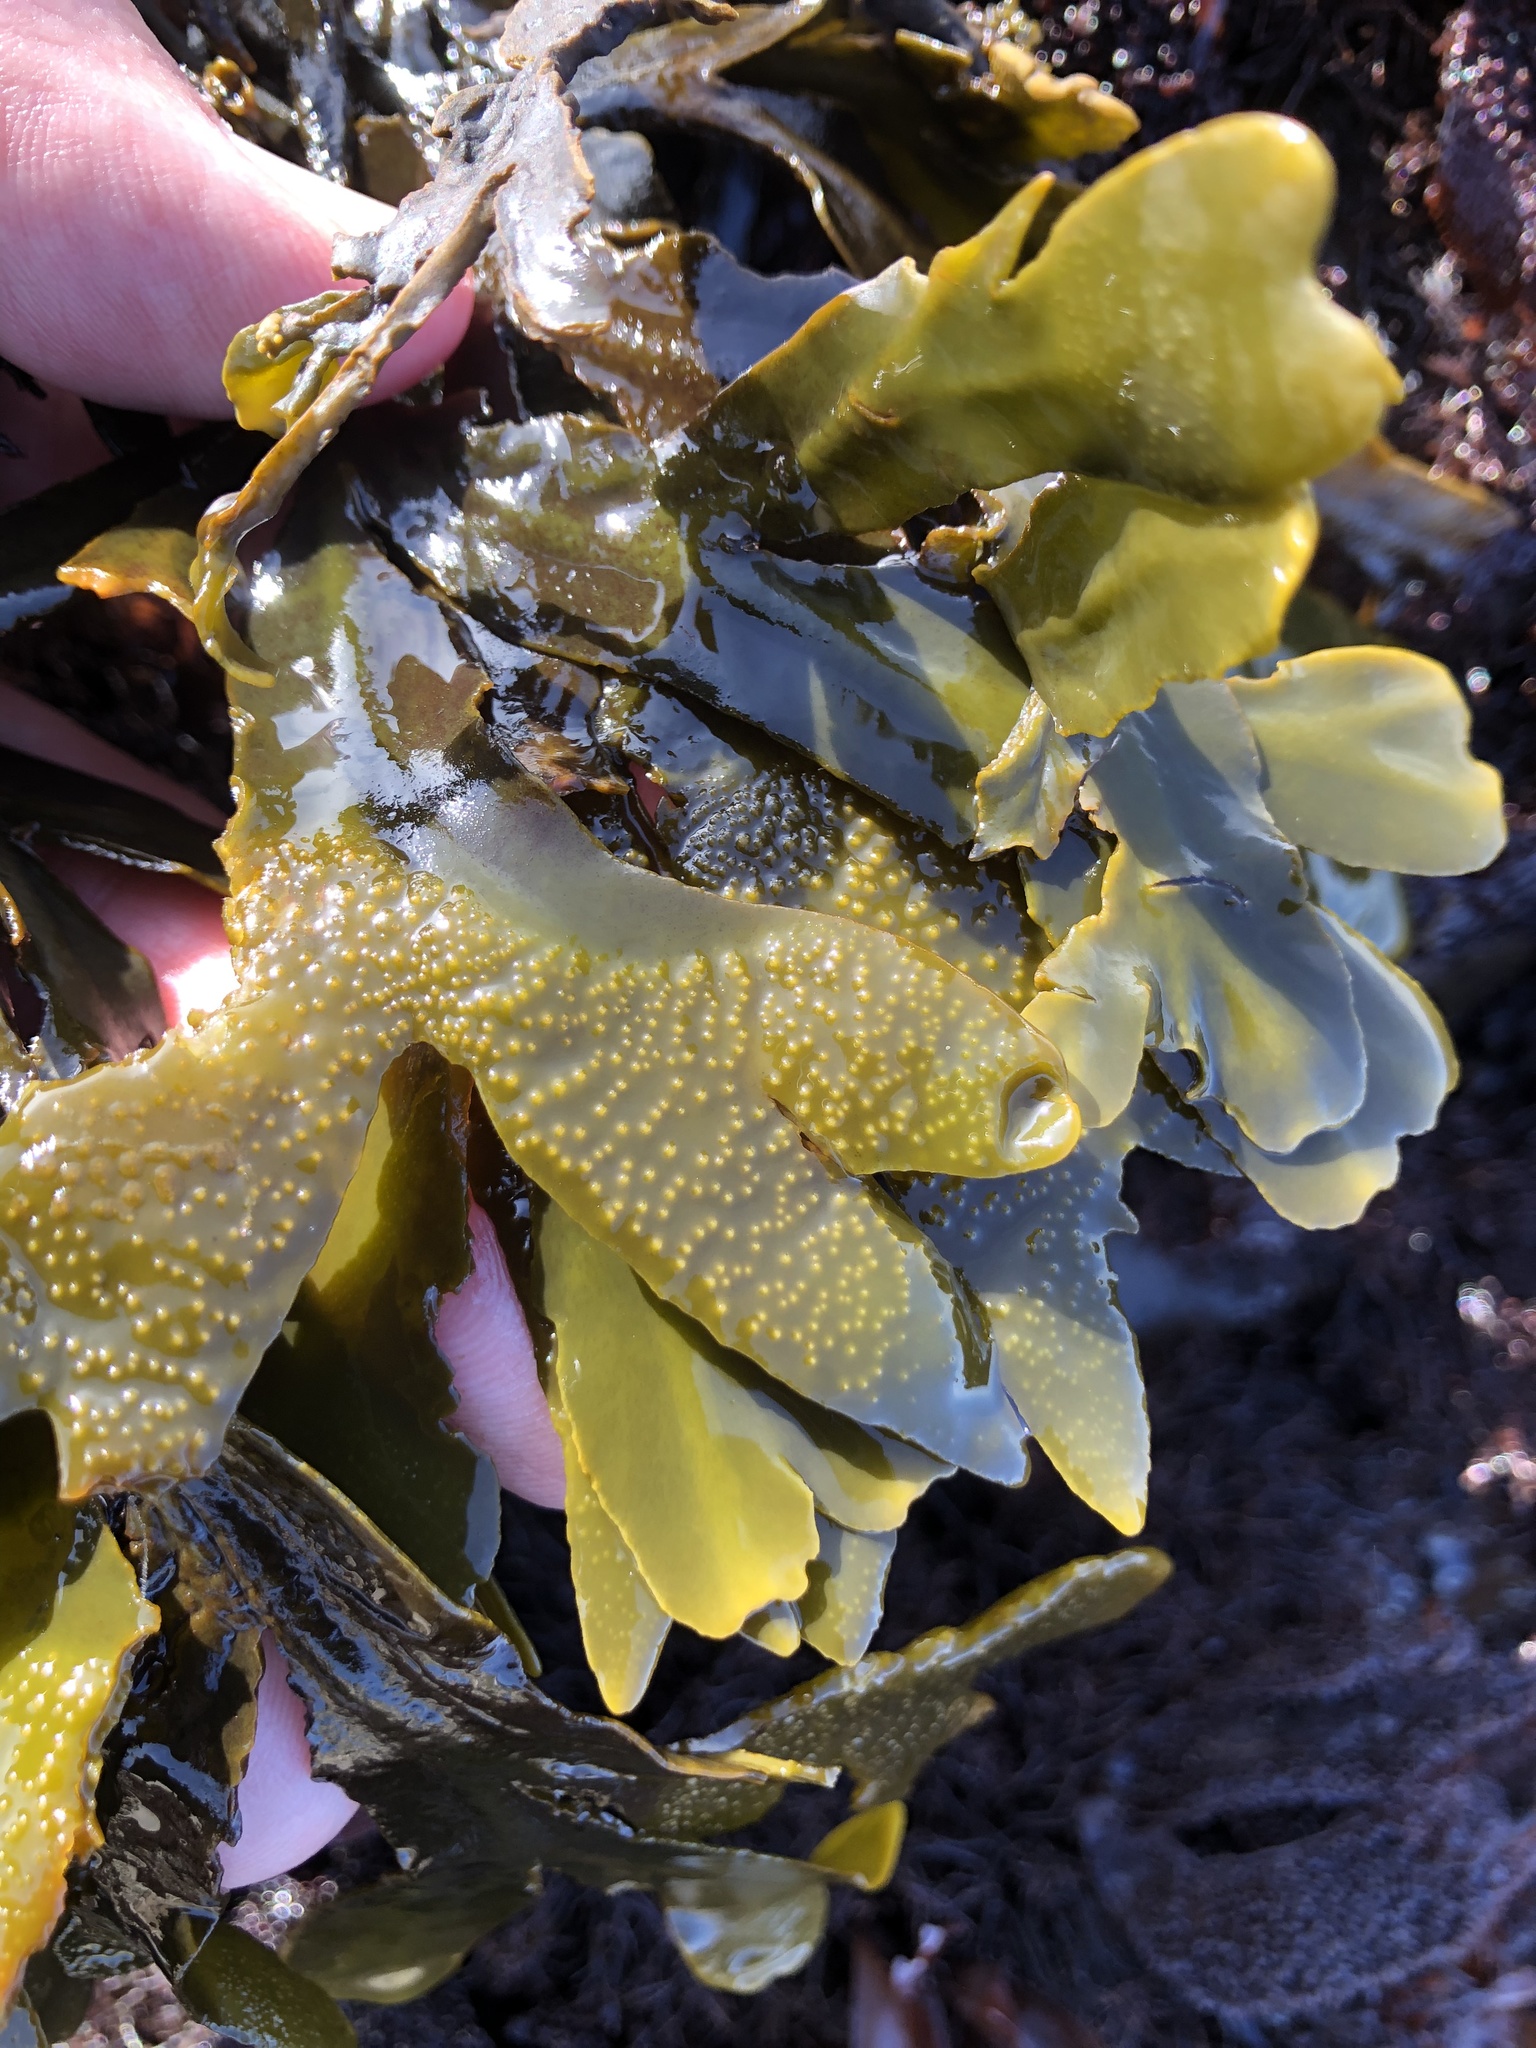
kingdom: Chromista
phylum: Ochrophyta
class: Phaeophyceae
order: Fucales
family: Fucaceae
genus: Fucus
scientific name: Fucus distichus
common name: Rockweed
